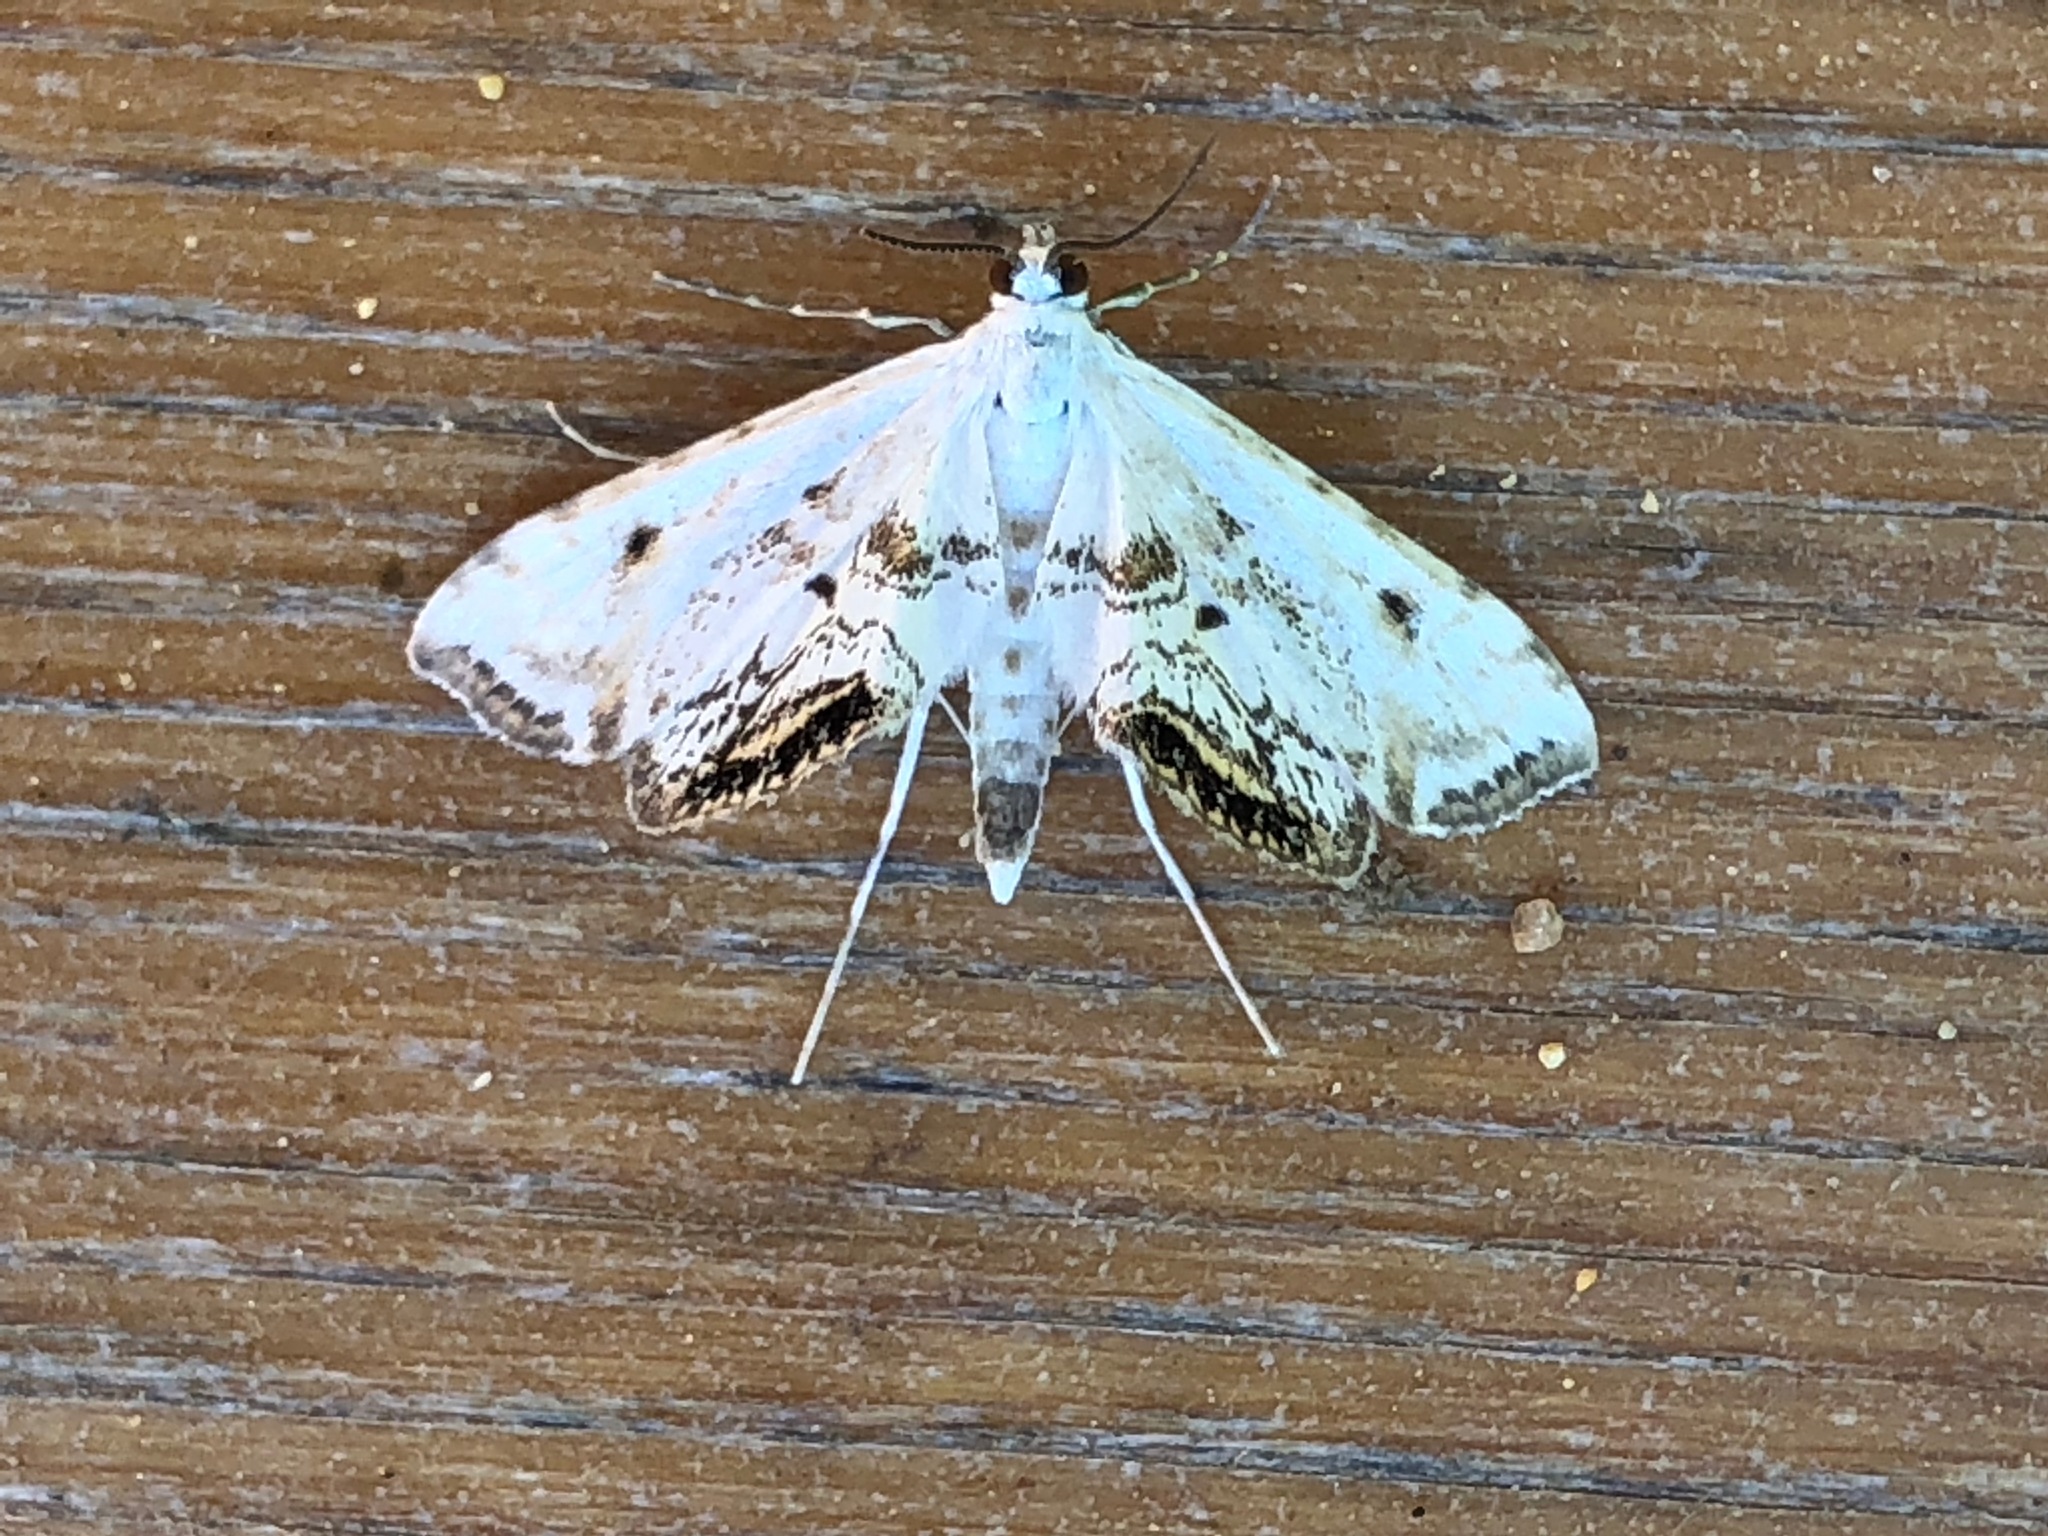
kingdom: Animalia
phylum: Arthropoda
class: Insecta
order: Lepidoptera
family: Crambidae
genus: Cataclysta
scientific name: Cataclysta lemnata
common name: Small china-mark
